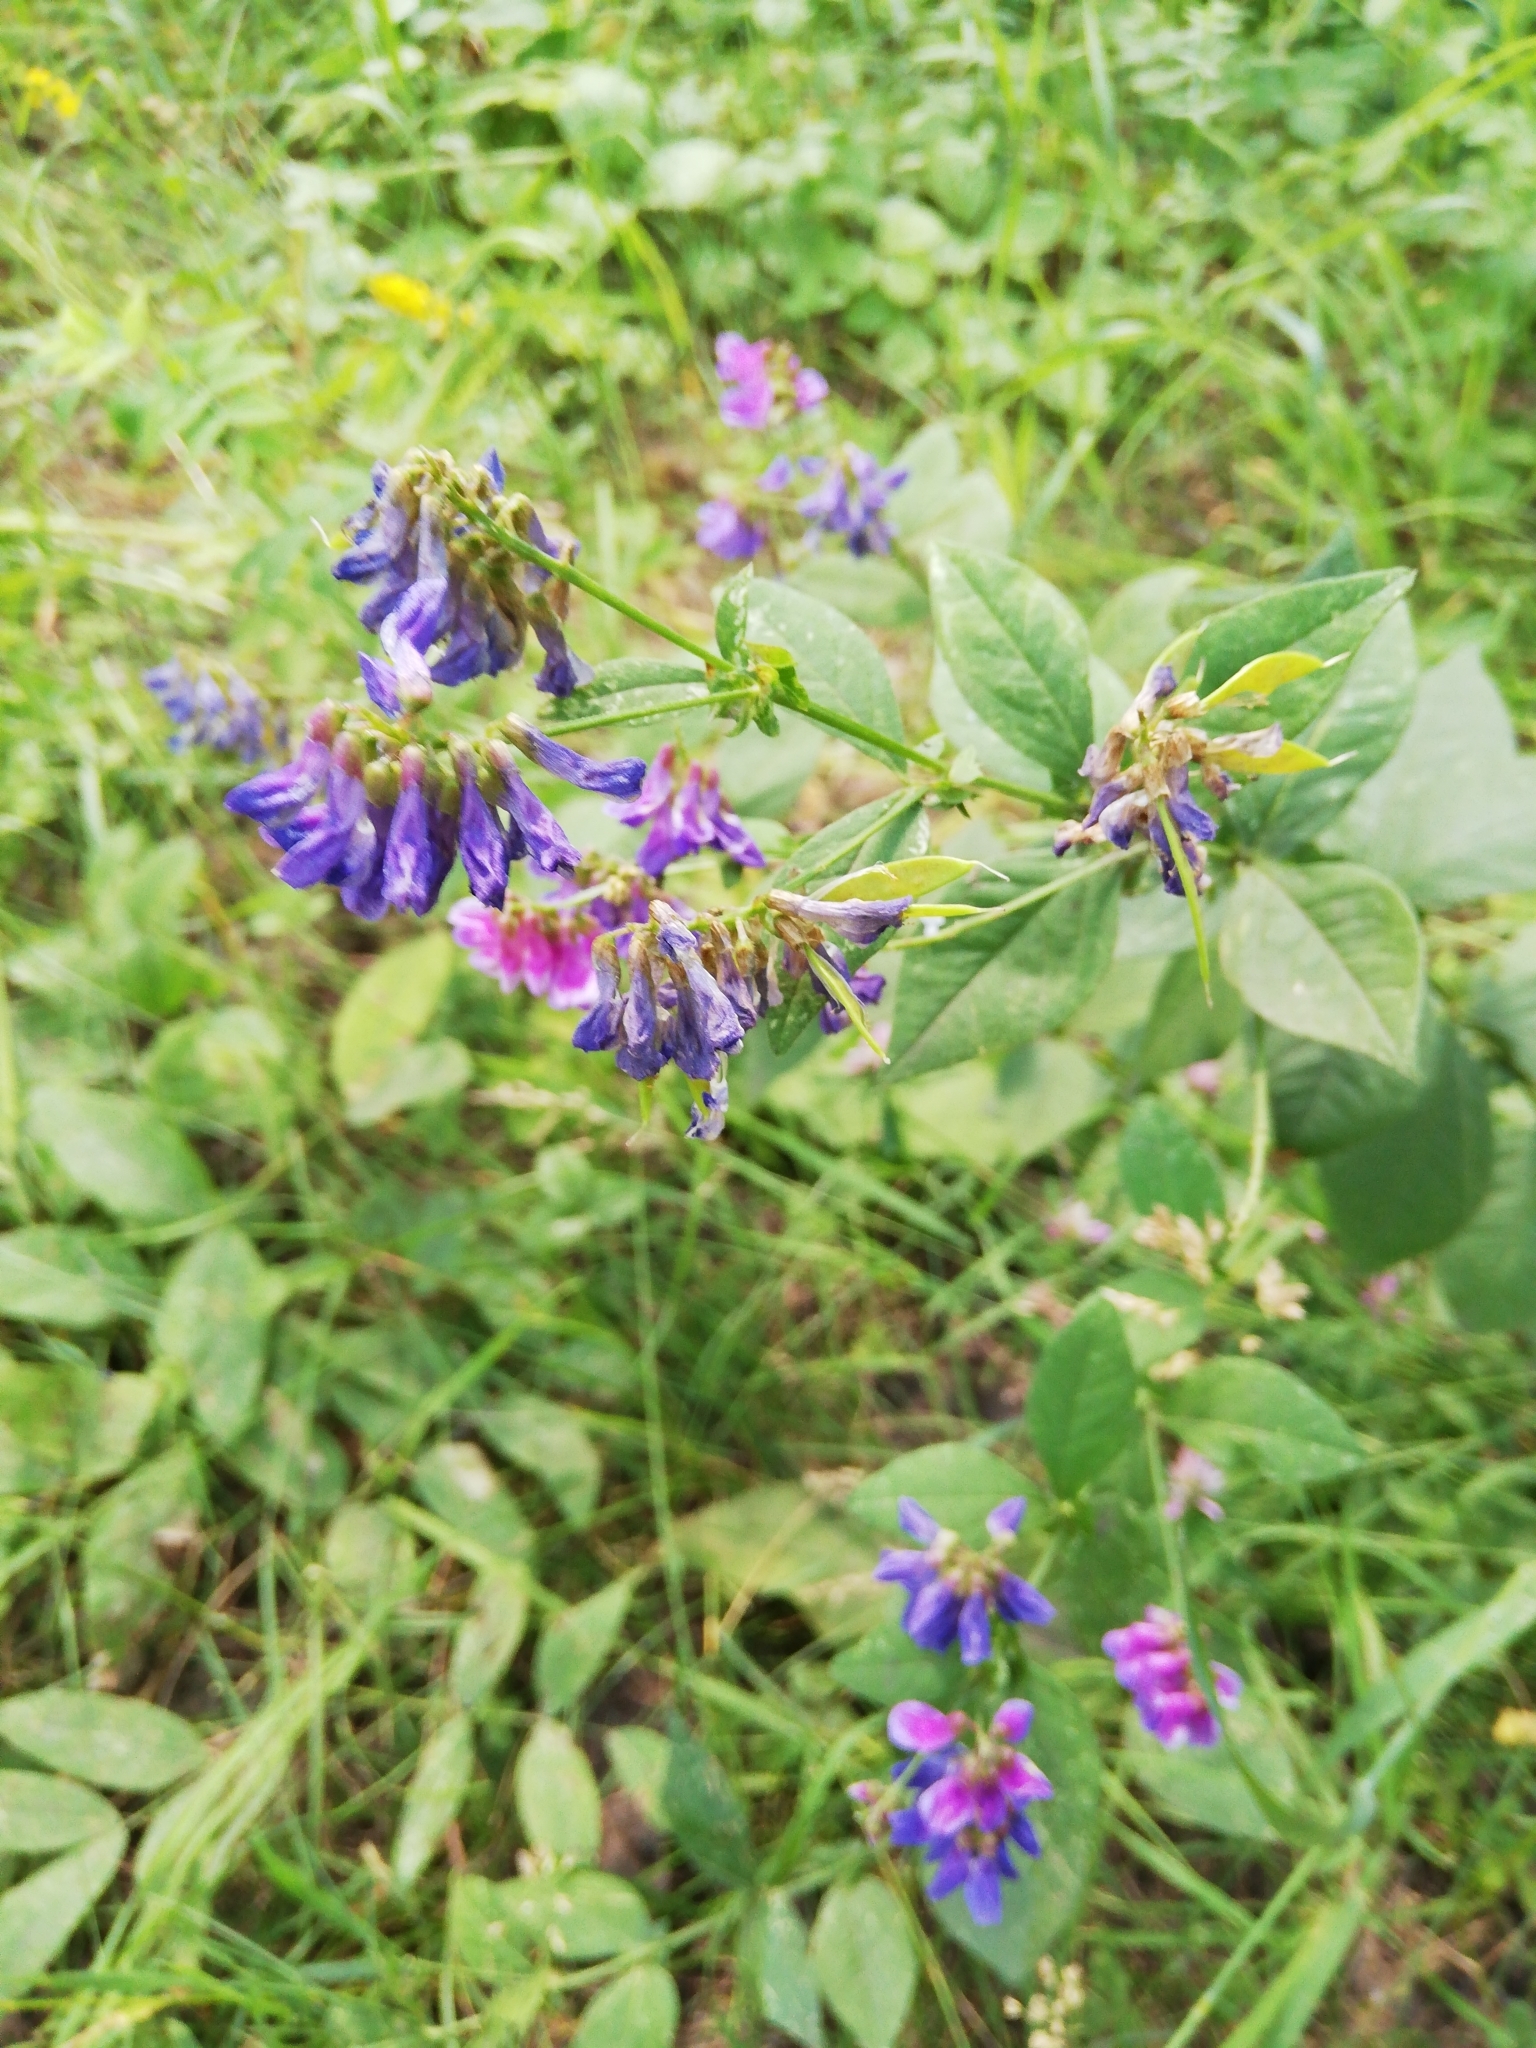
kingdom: Plantae
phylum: Tracheophyta
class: Magnoliopsida
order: Fabales
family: Fabaceae
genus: Vicia
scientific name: Vicia unijuga
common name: Two-leaf vetch
